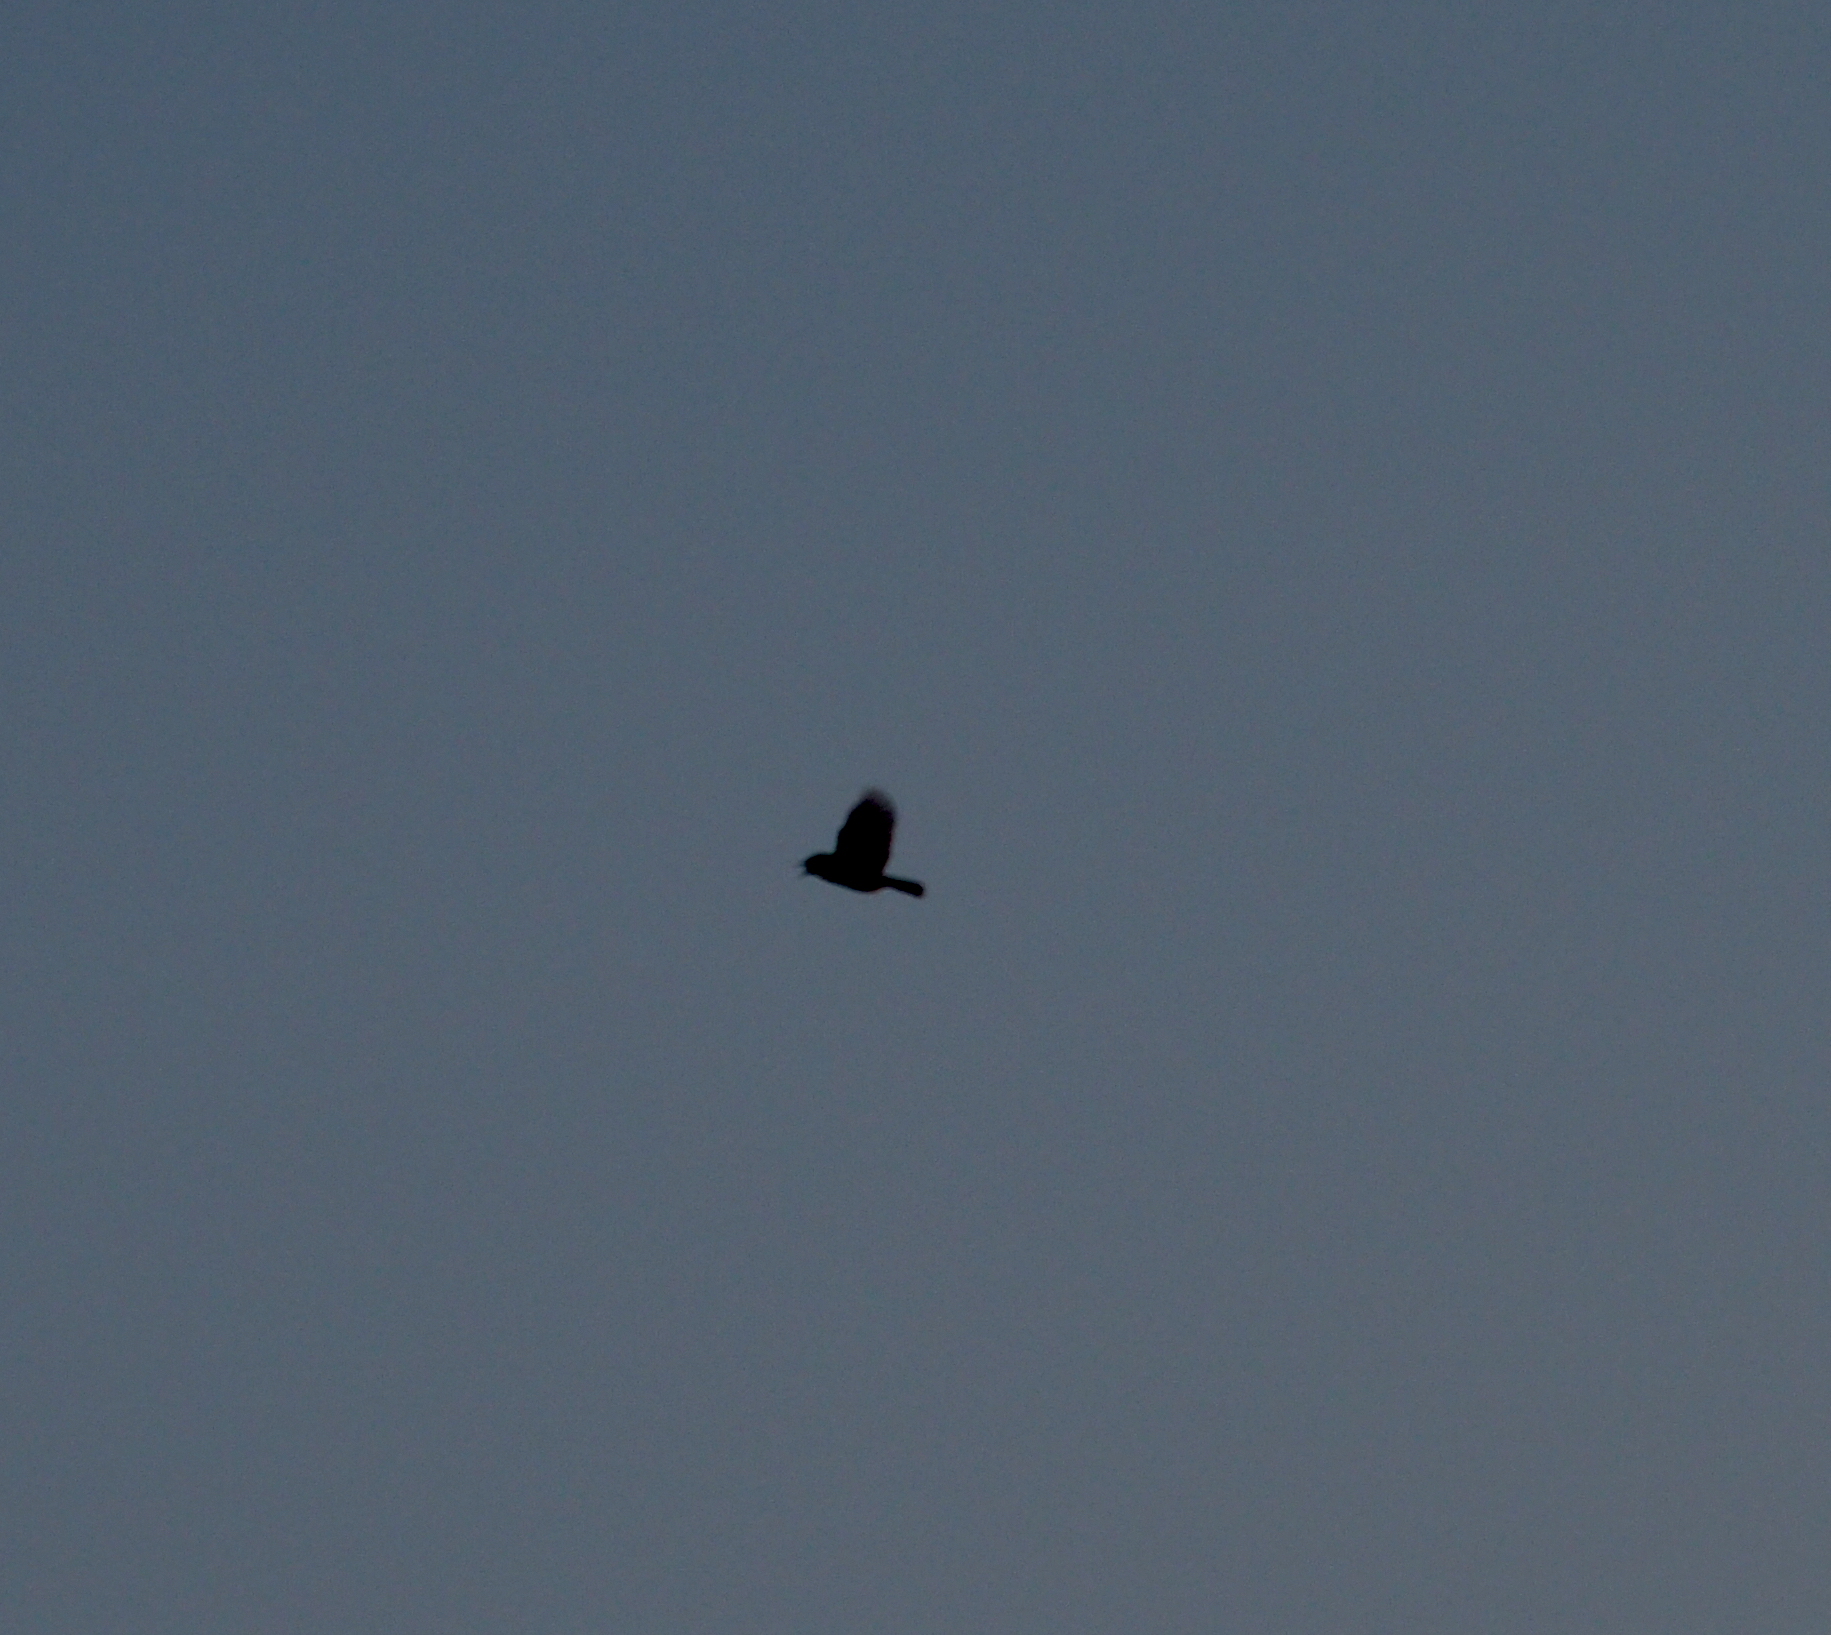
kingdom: Animalia
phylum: Chordata
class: Aves
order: Passeriformes
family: Cisticolidae
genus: Cisticola
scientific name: Cisticola juncidis
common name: Zitting cisticola
